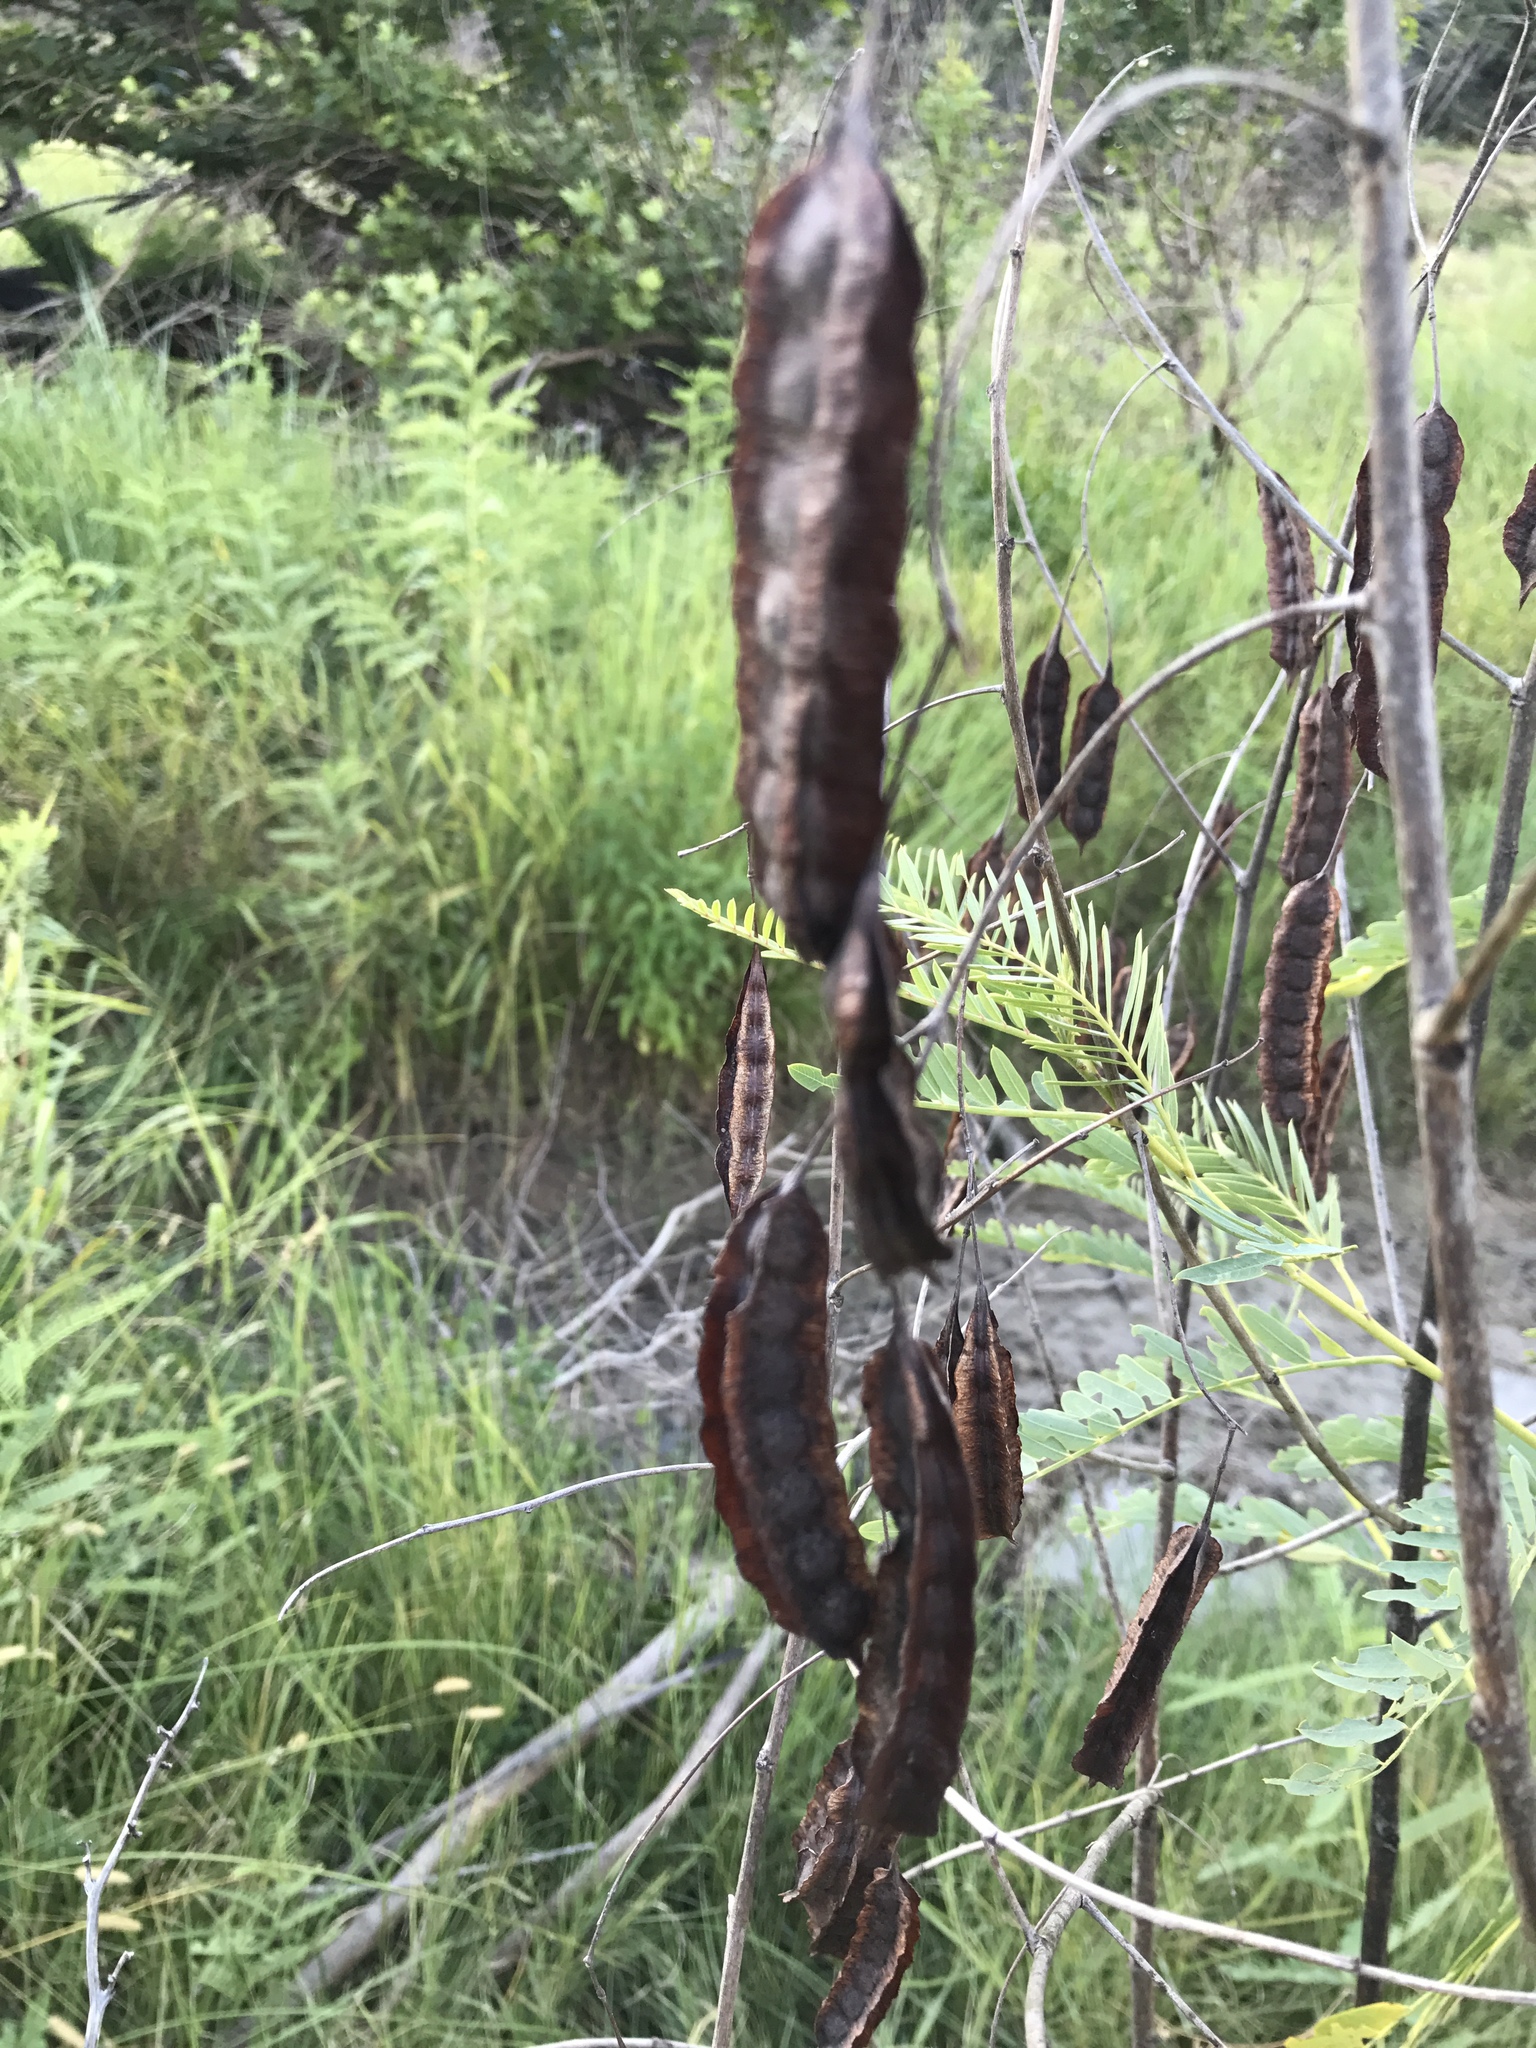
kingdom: Plantae
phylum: Tracheophyta
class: Magnoliopsida
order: Fabales
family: Fabaceae
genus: Sesbania
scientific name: Sesbania drummondii
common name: Poison-bean
